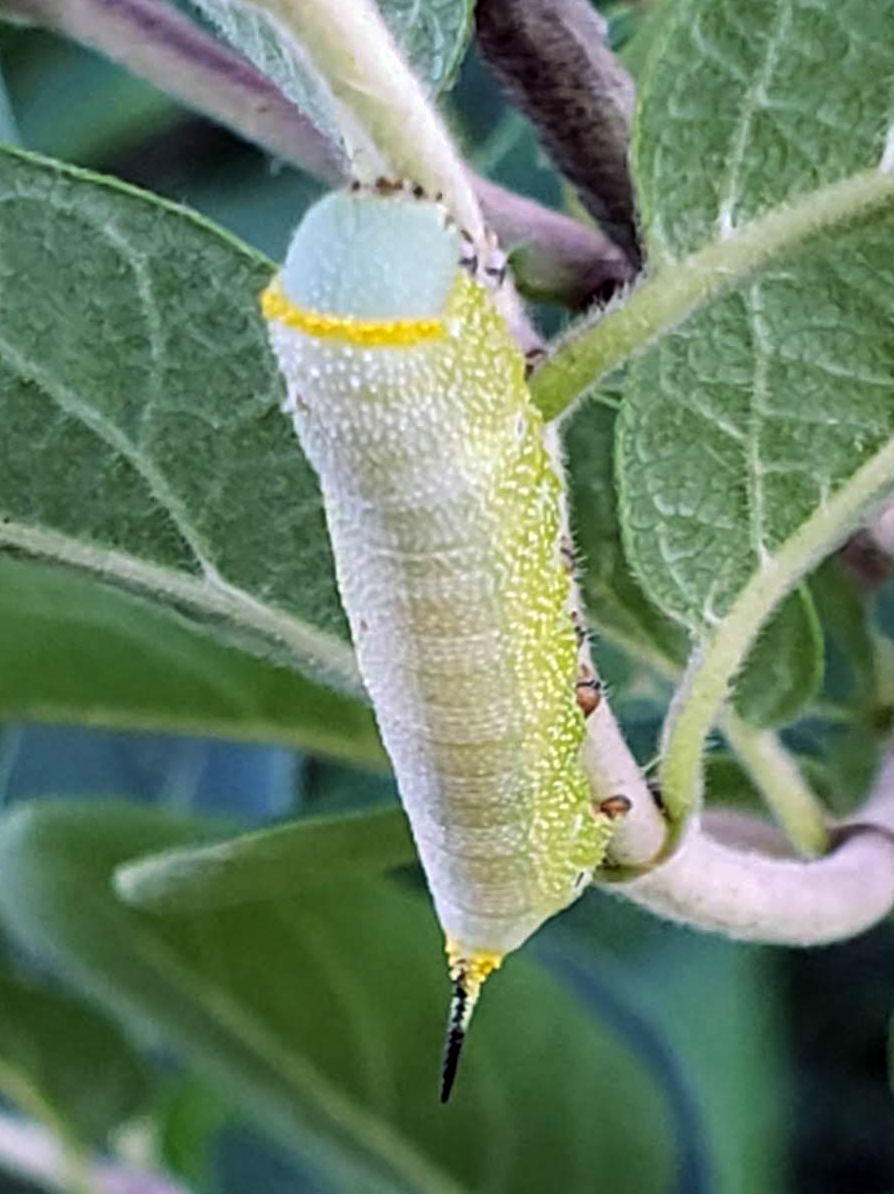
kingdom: Animalia
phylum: Arthropoda
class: Insecta
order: Lepidoptera
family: Sphingidae
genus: Hemaris
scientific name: Hemaris diffinis
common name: Bumblebee moth
